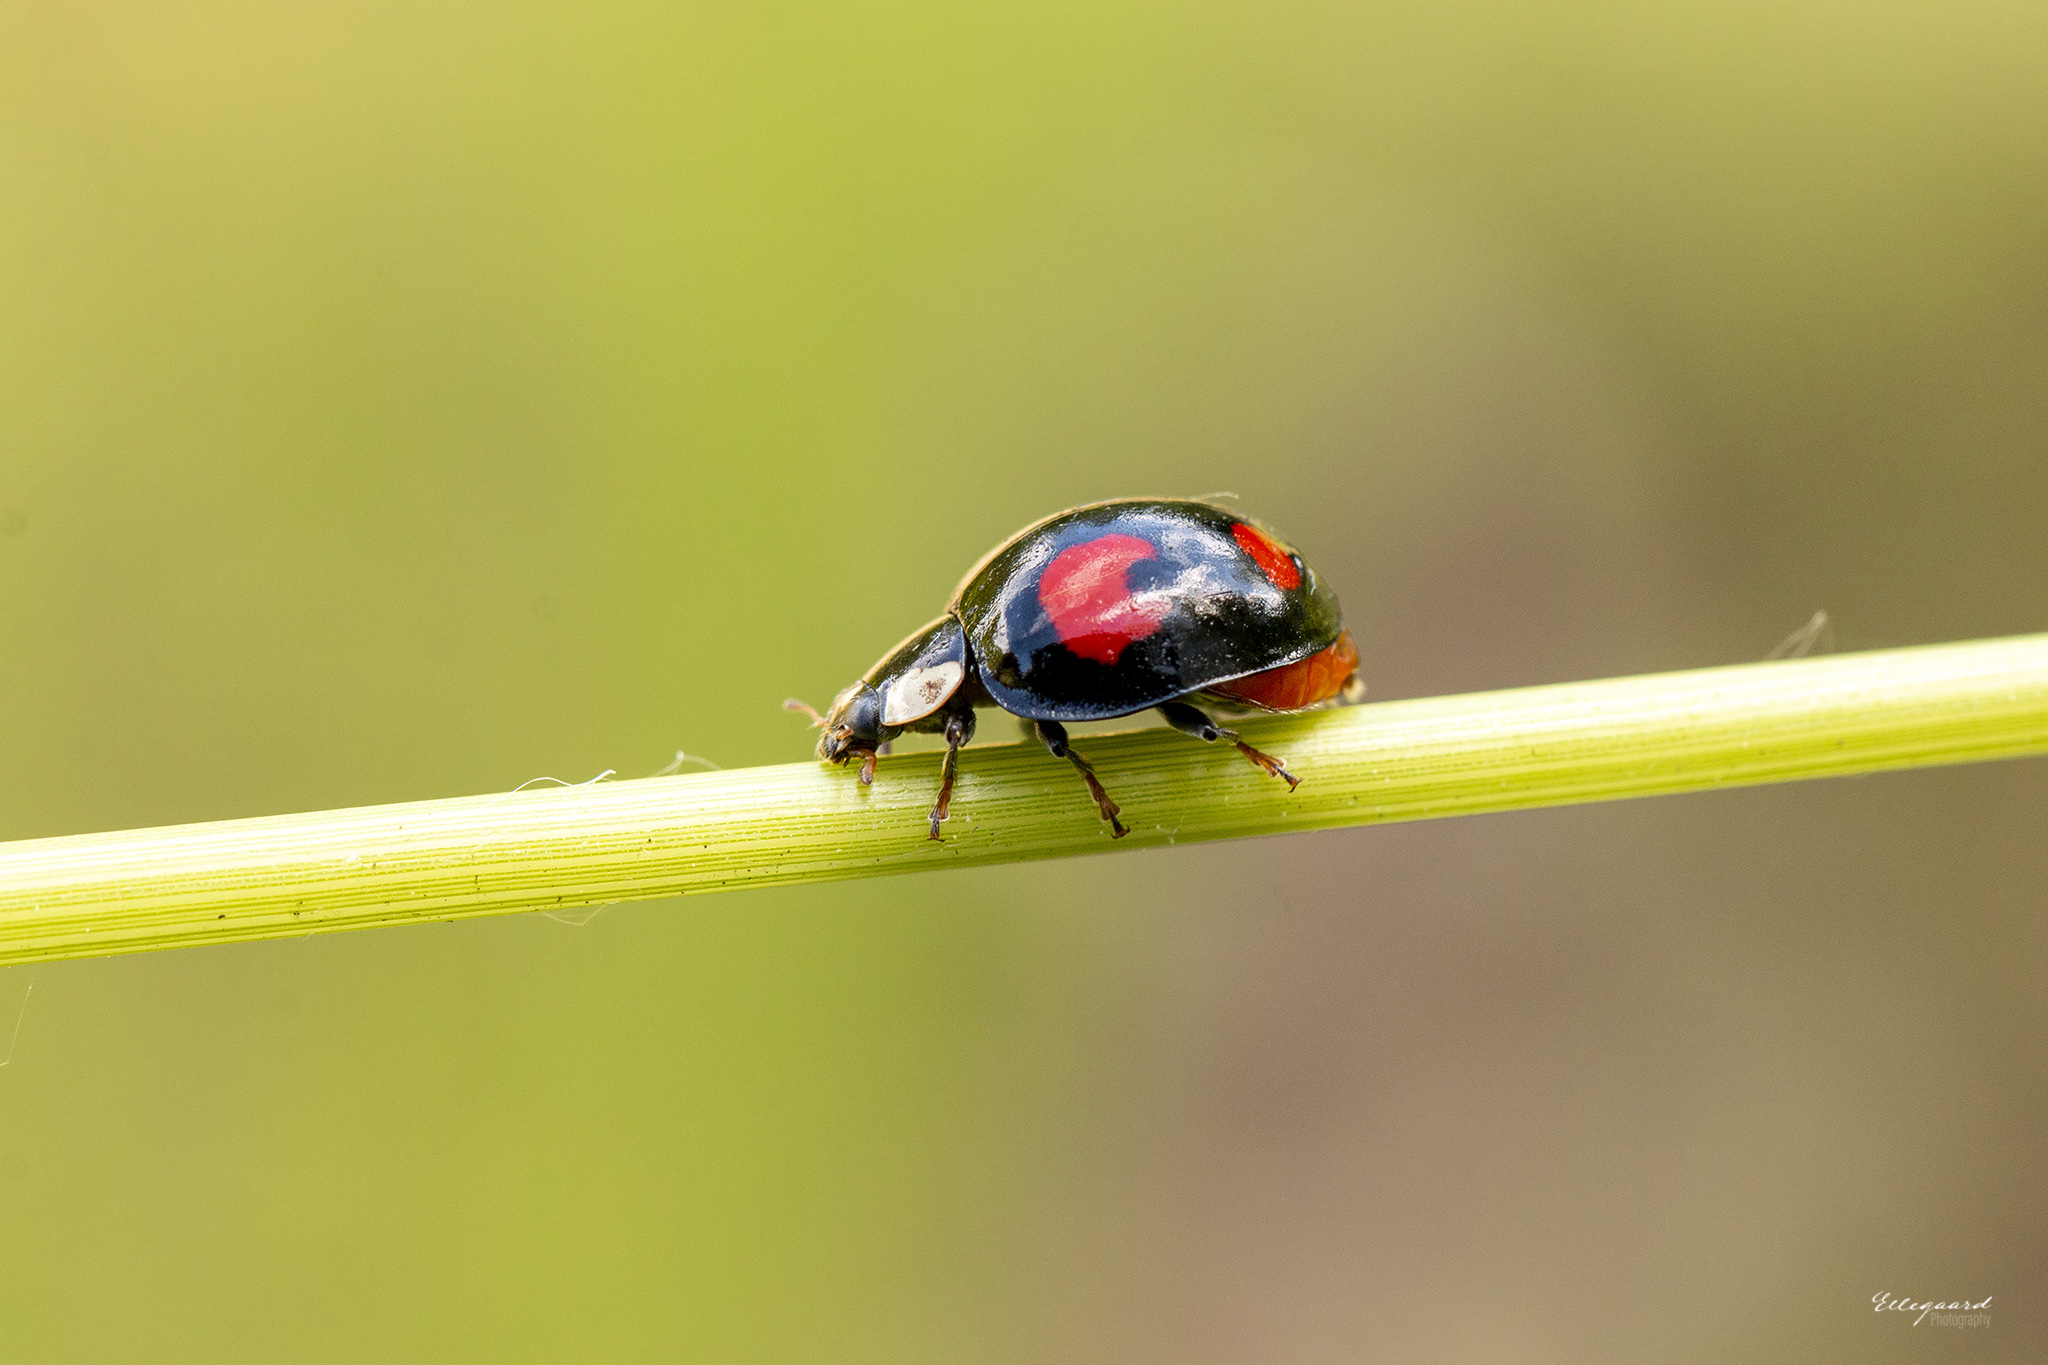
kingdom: Animalia
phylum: Arthropoda
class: Insecta
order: Coleoptera
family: Coccinellidae
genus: Harmonia
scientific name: Harmonia axyridis
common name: Harlequin ladybird
